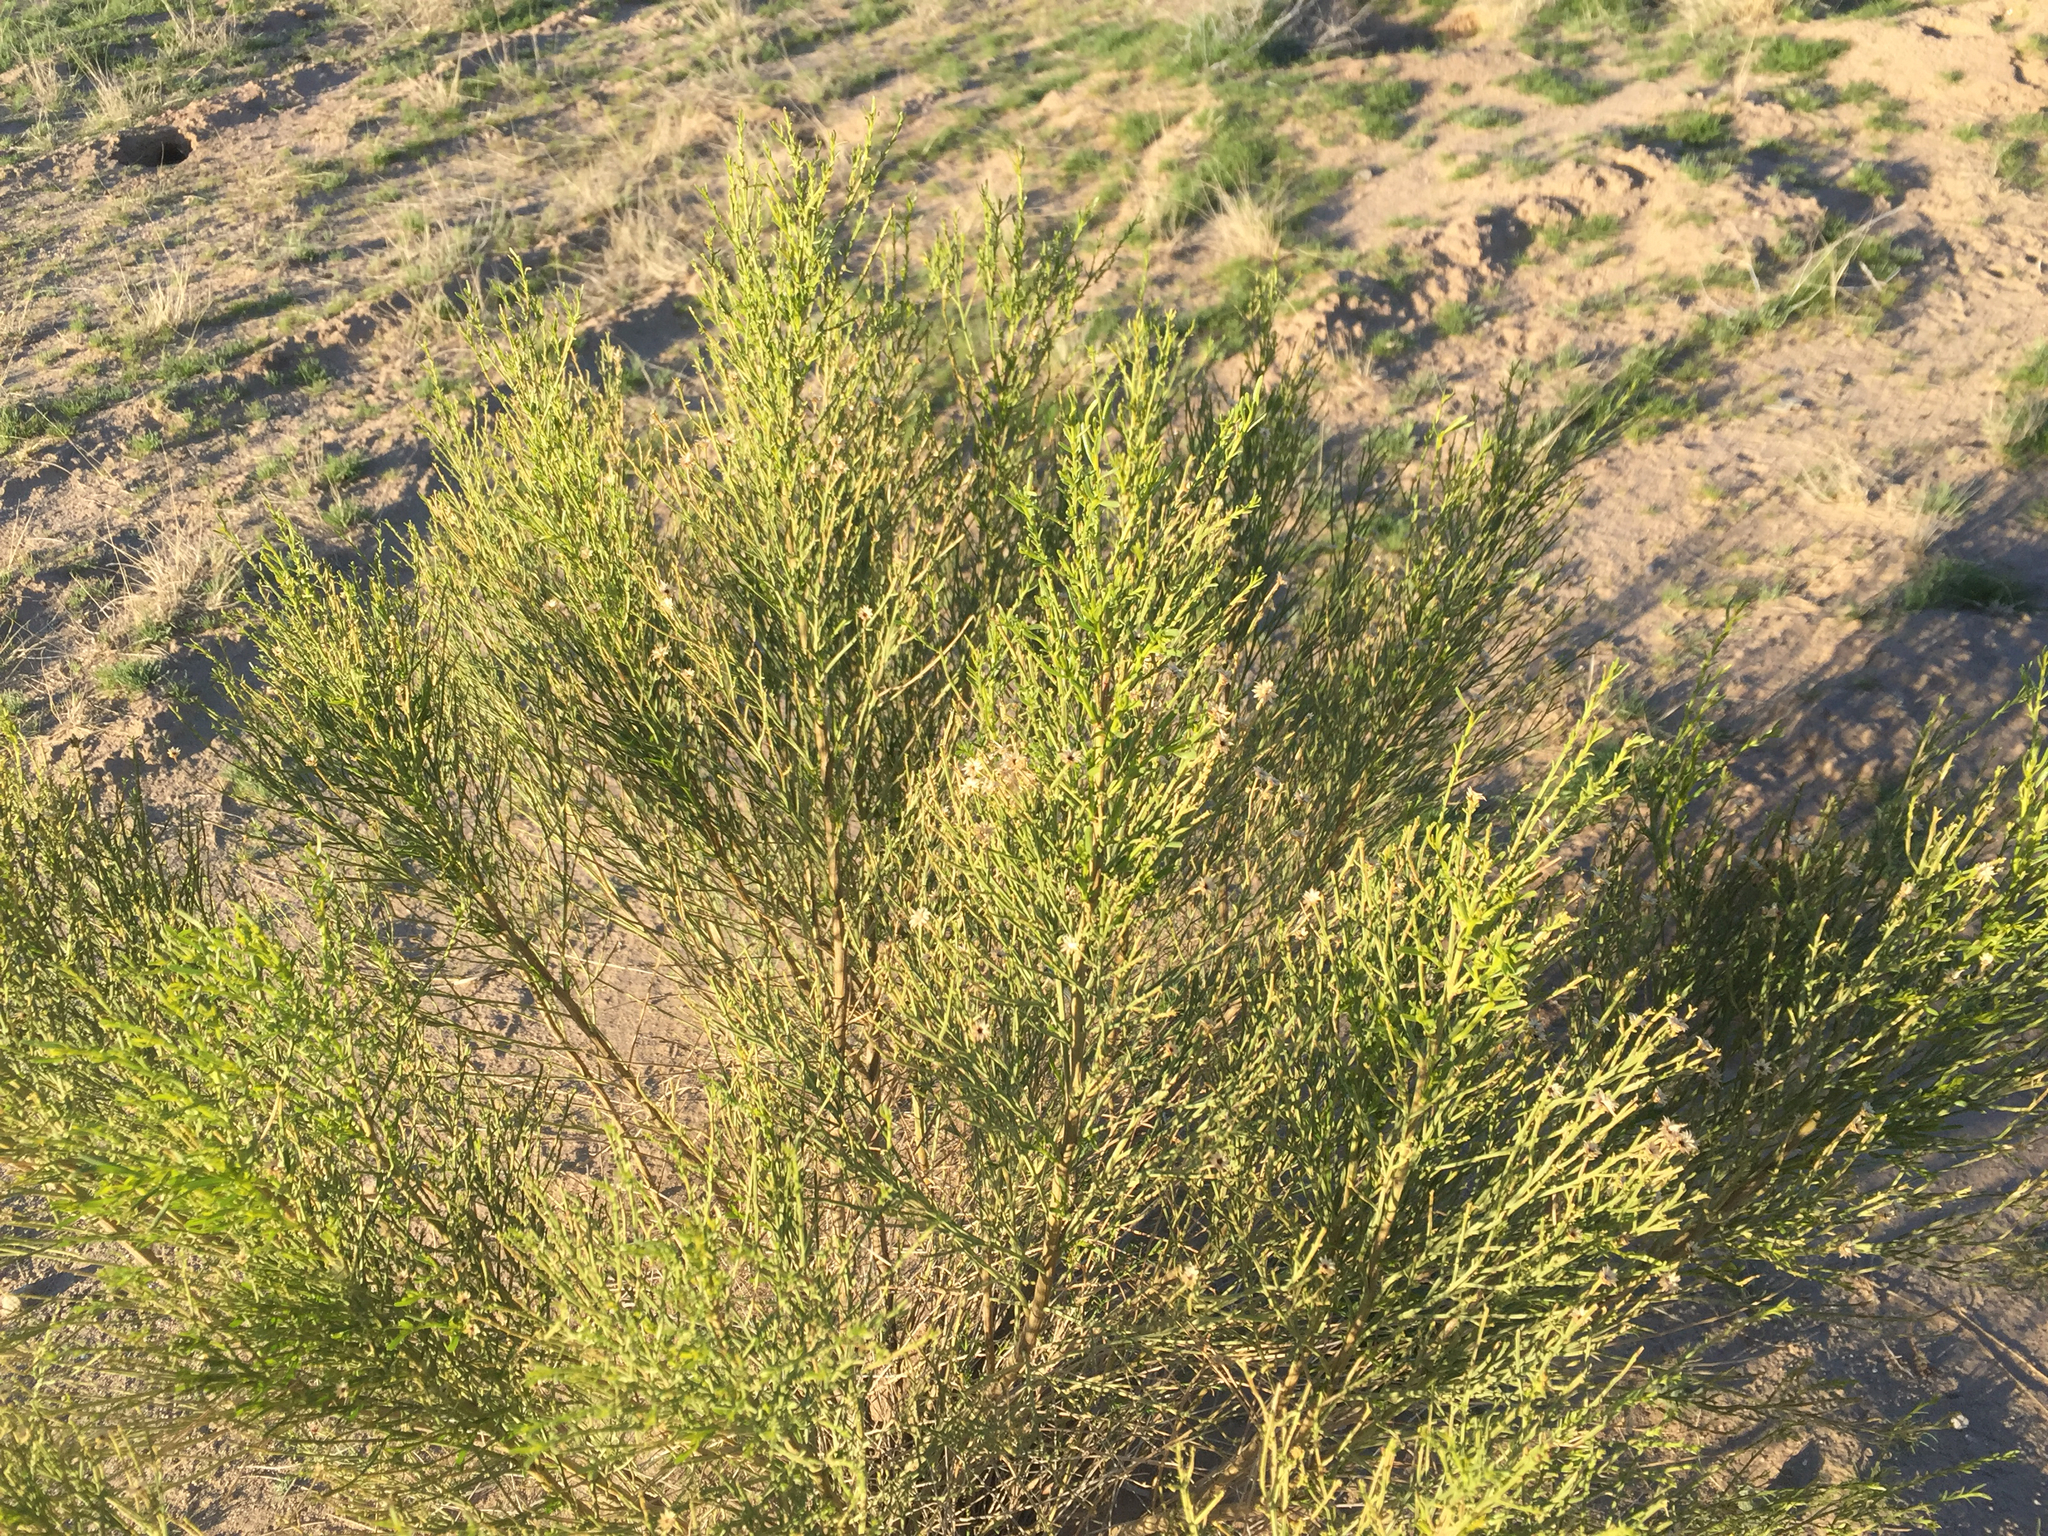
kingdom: Plantae
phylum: Tracheophyta
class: Magnoliopsida
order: Asterales
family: Asteraceae
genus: Baccharis
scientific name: Baccharis sarothroides
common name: Desert-broom
